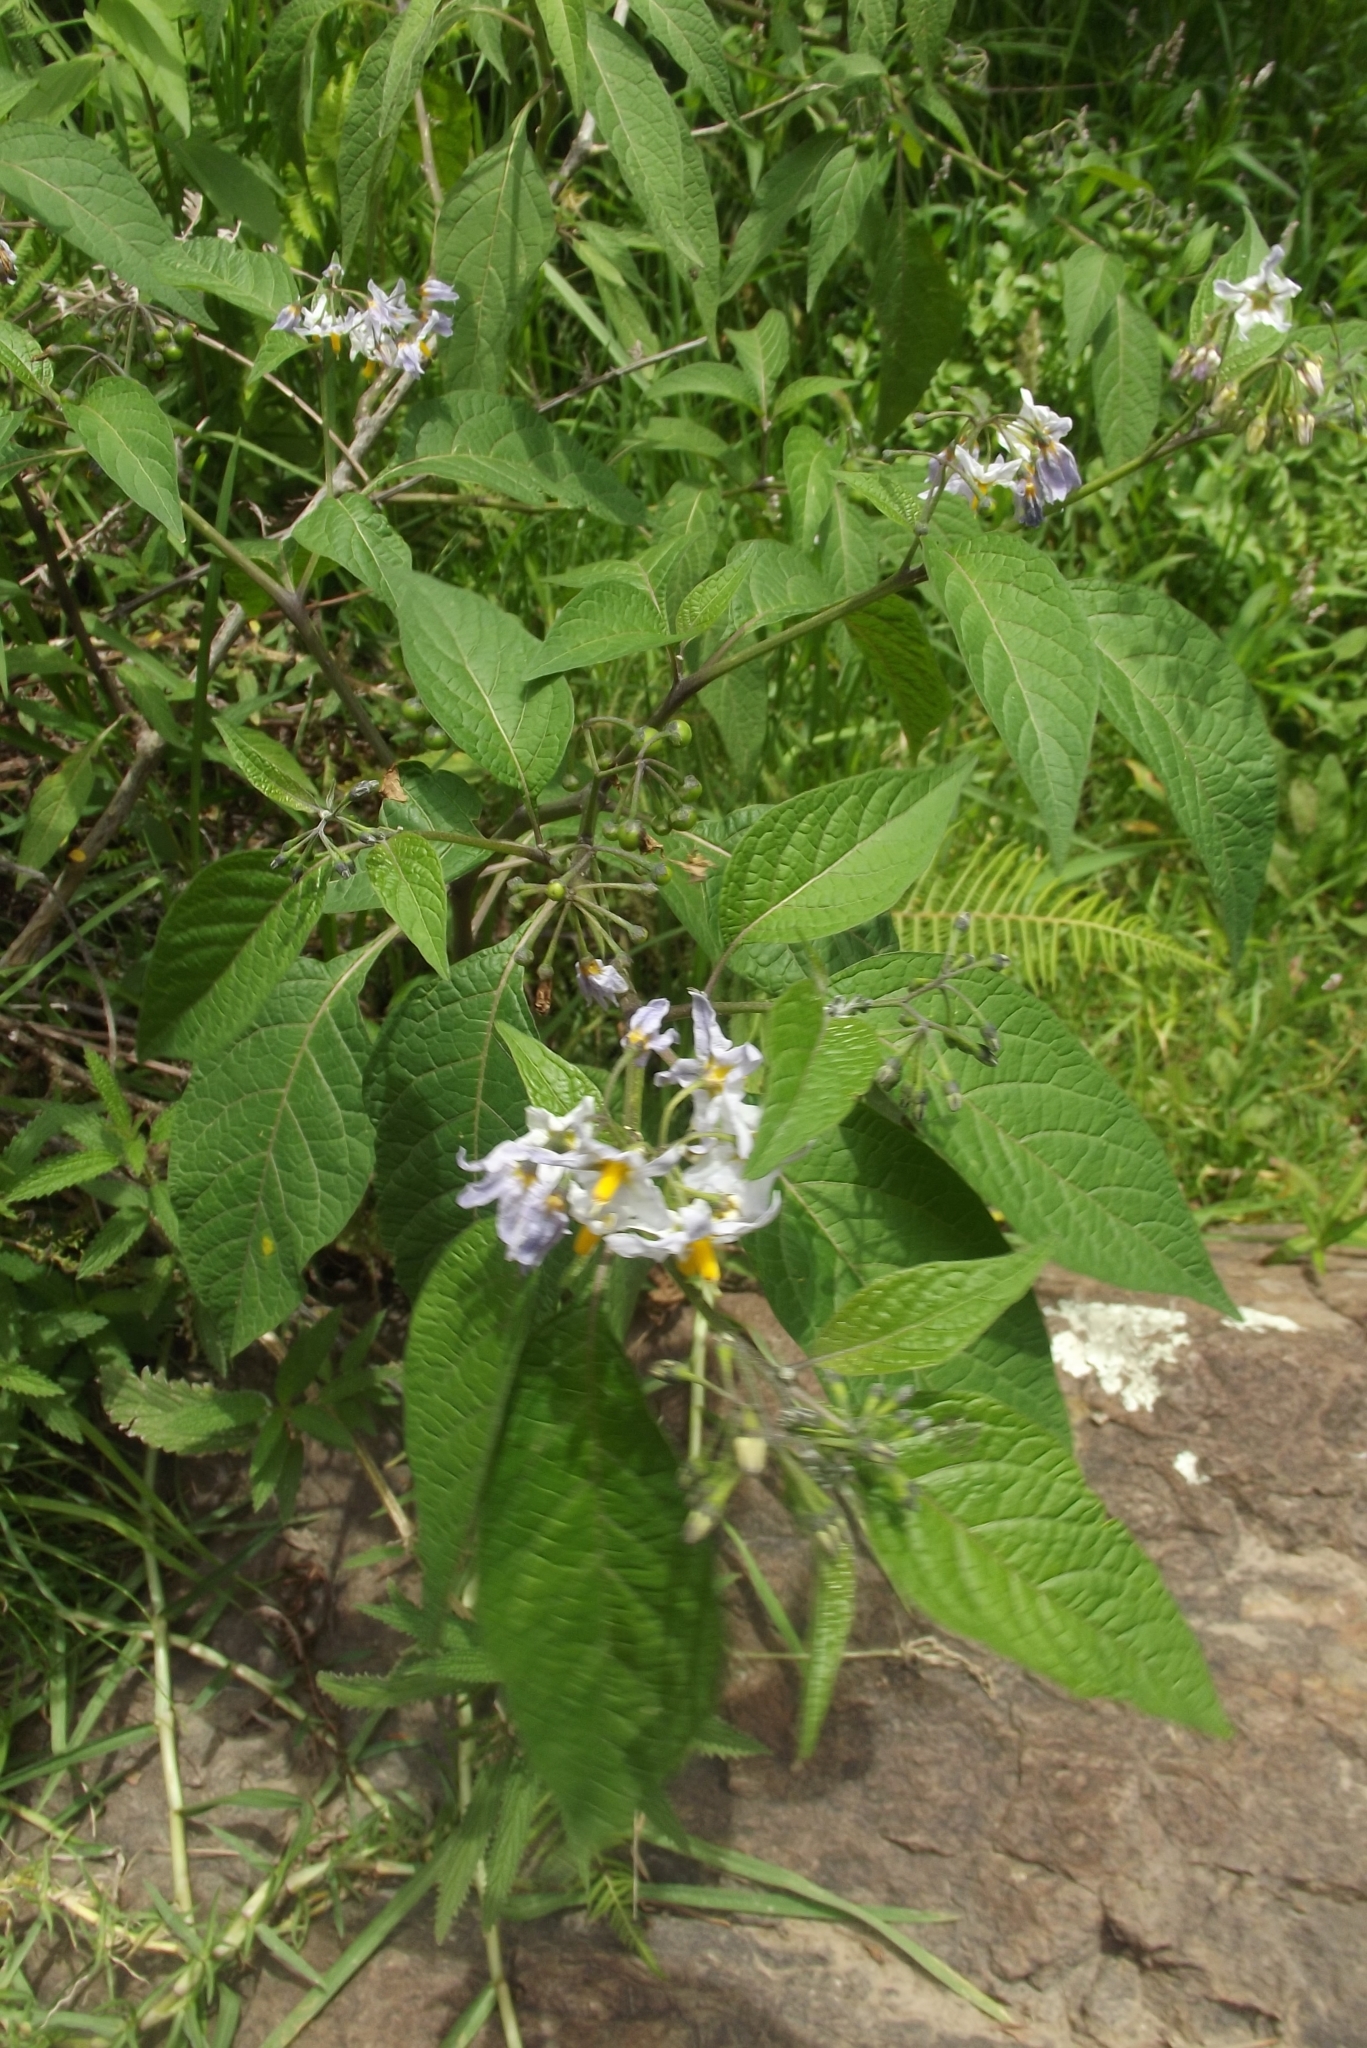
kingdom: Plantae
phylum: Tracheophyta
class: Magnoliopsida
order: Solanales
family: Solanaceae
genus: Solanum
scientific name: Solanum polytrichostylum
